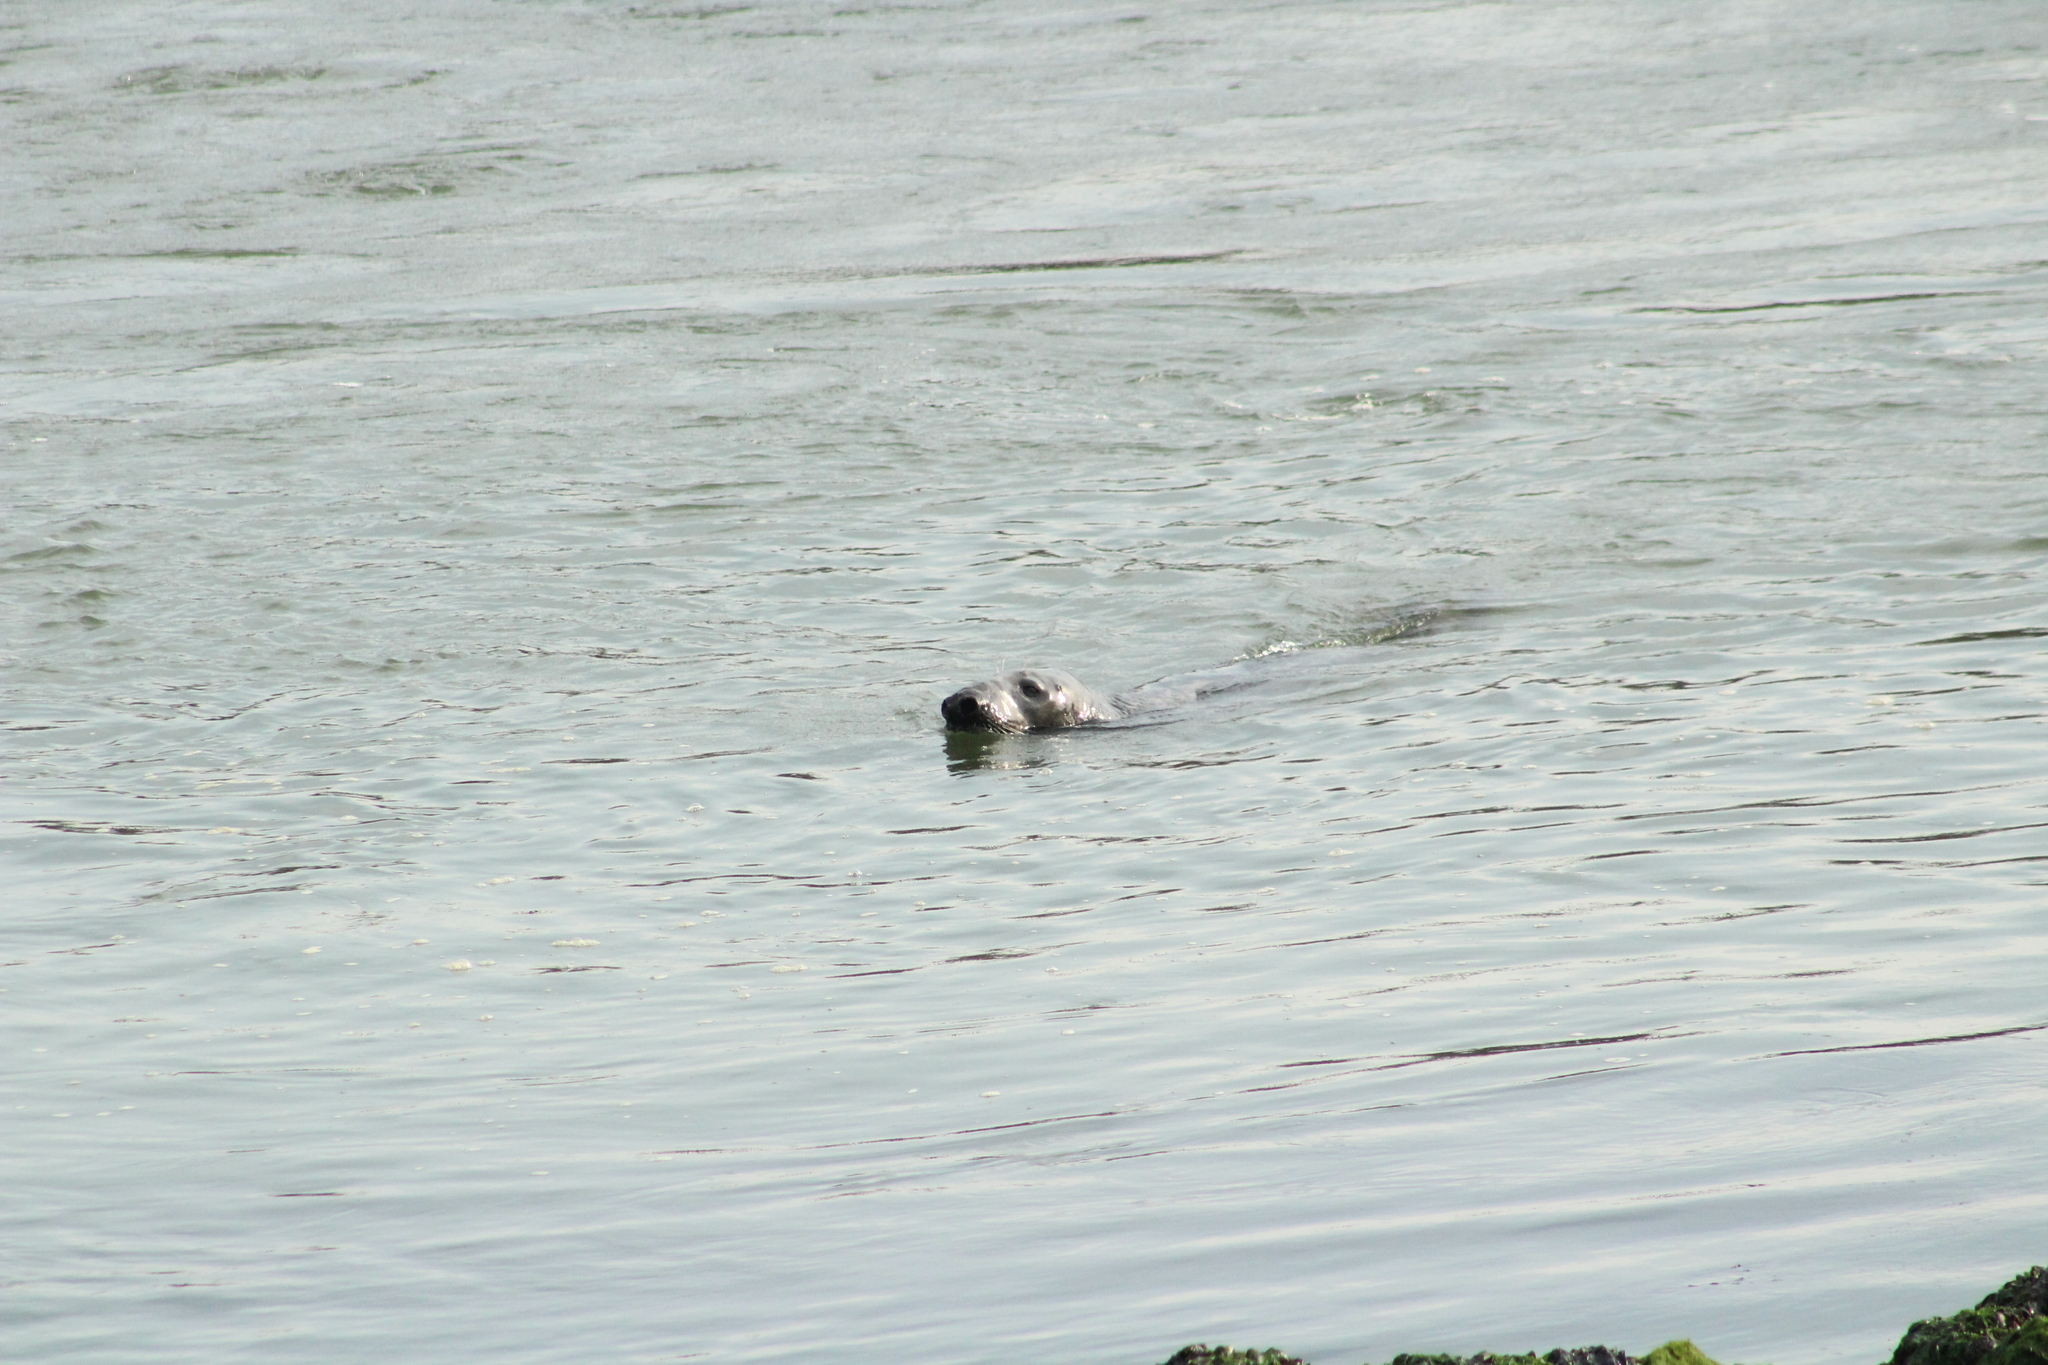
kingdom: Animalia
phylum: Chordata
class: Mammalia
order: Carnivora
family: Phocidae
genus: Halichoerus
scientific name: Halichoerus grypus
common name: Grey seal
